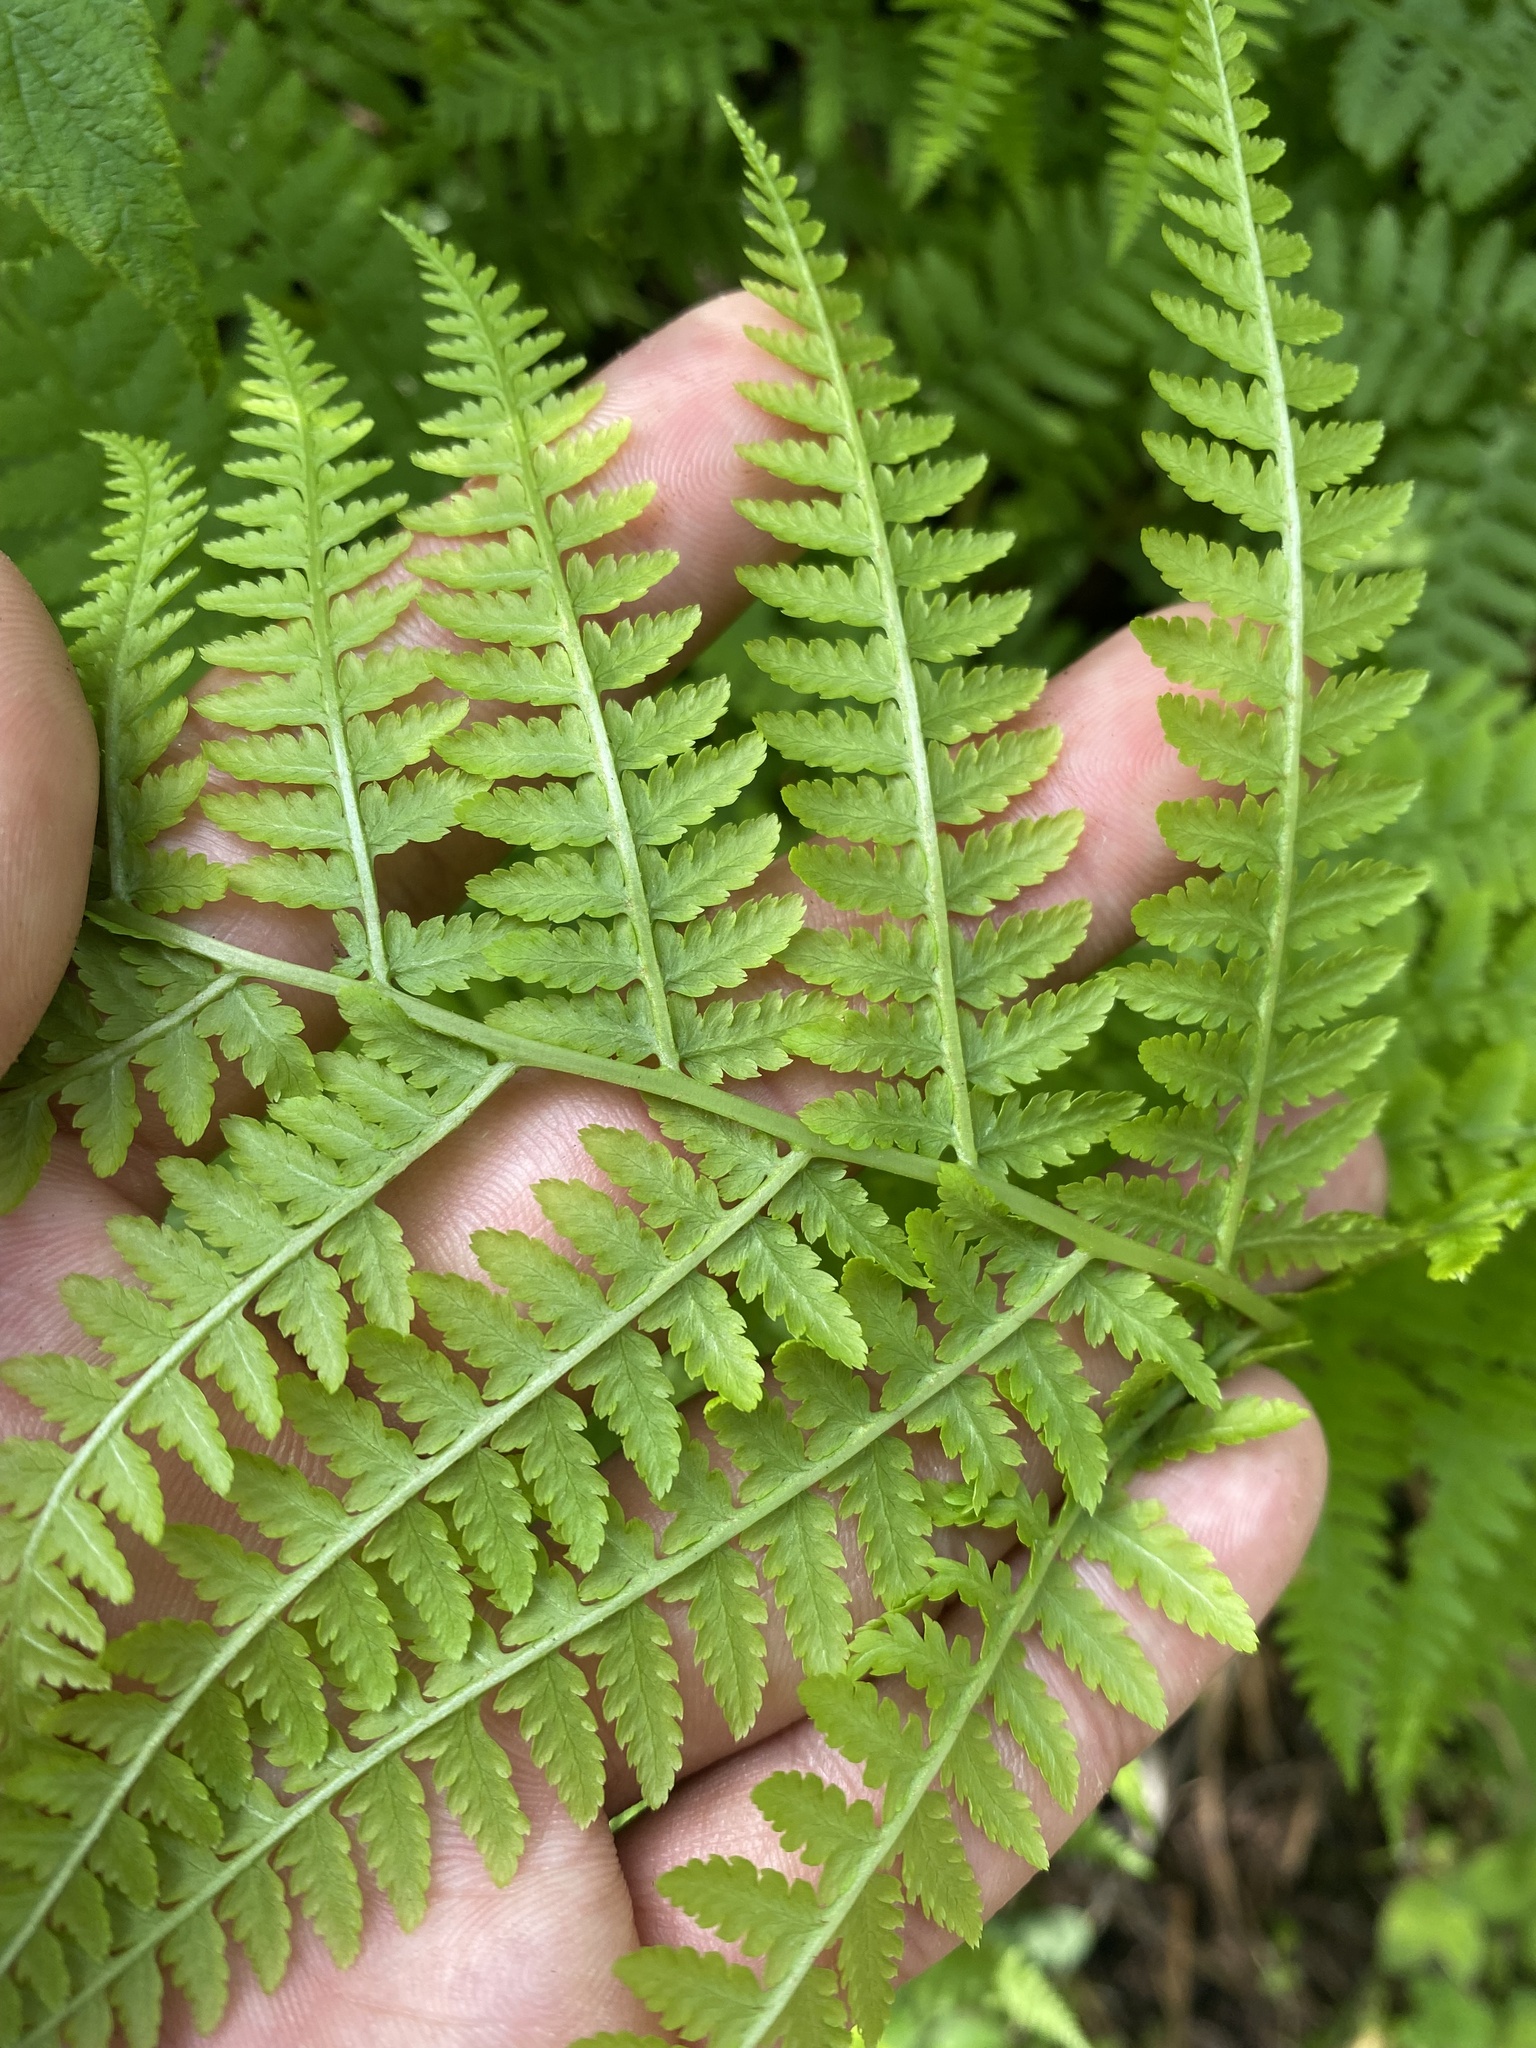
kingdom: Plantae
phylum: Tracheophyta
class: Polypodiopsida
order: Polypodiales
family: Athyriaceae
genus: Athyrium
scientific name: Athyrium filix-femina
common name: Lady fern
